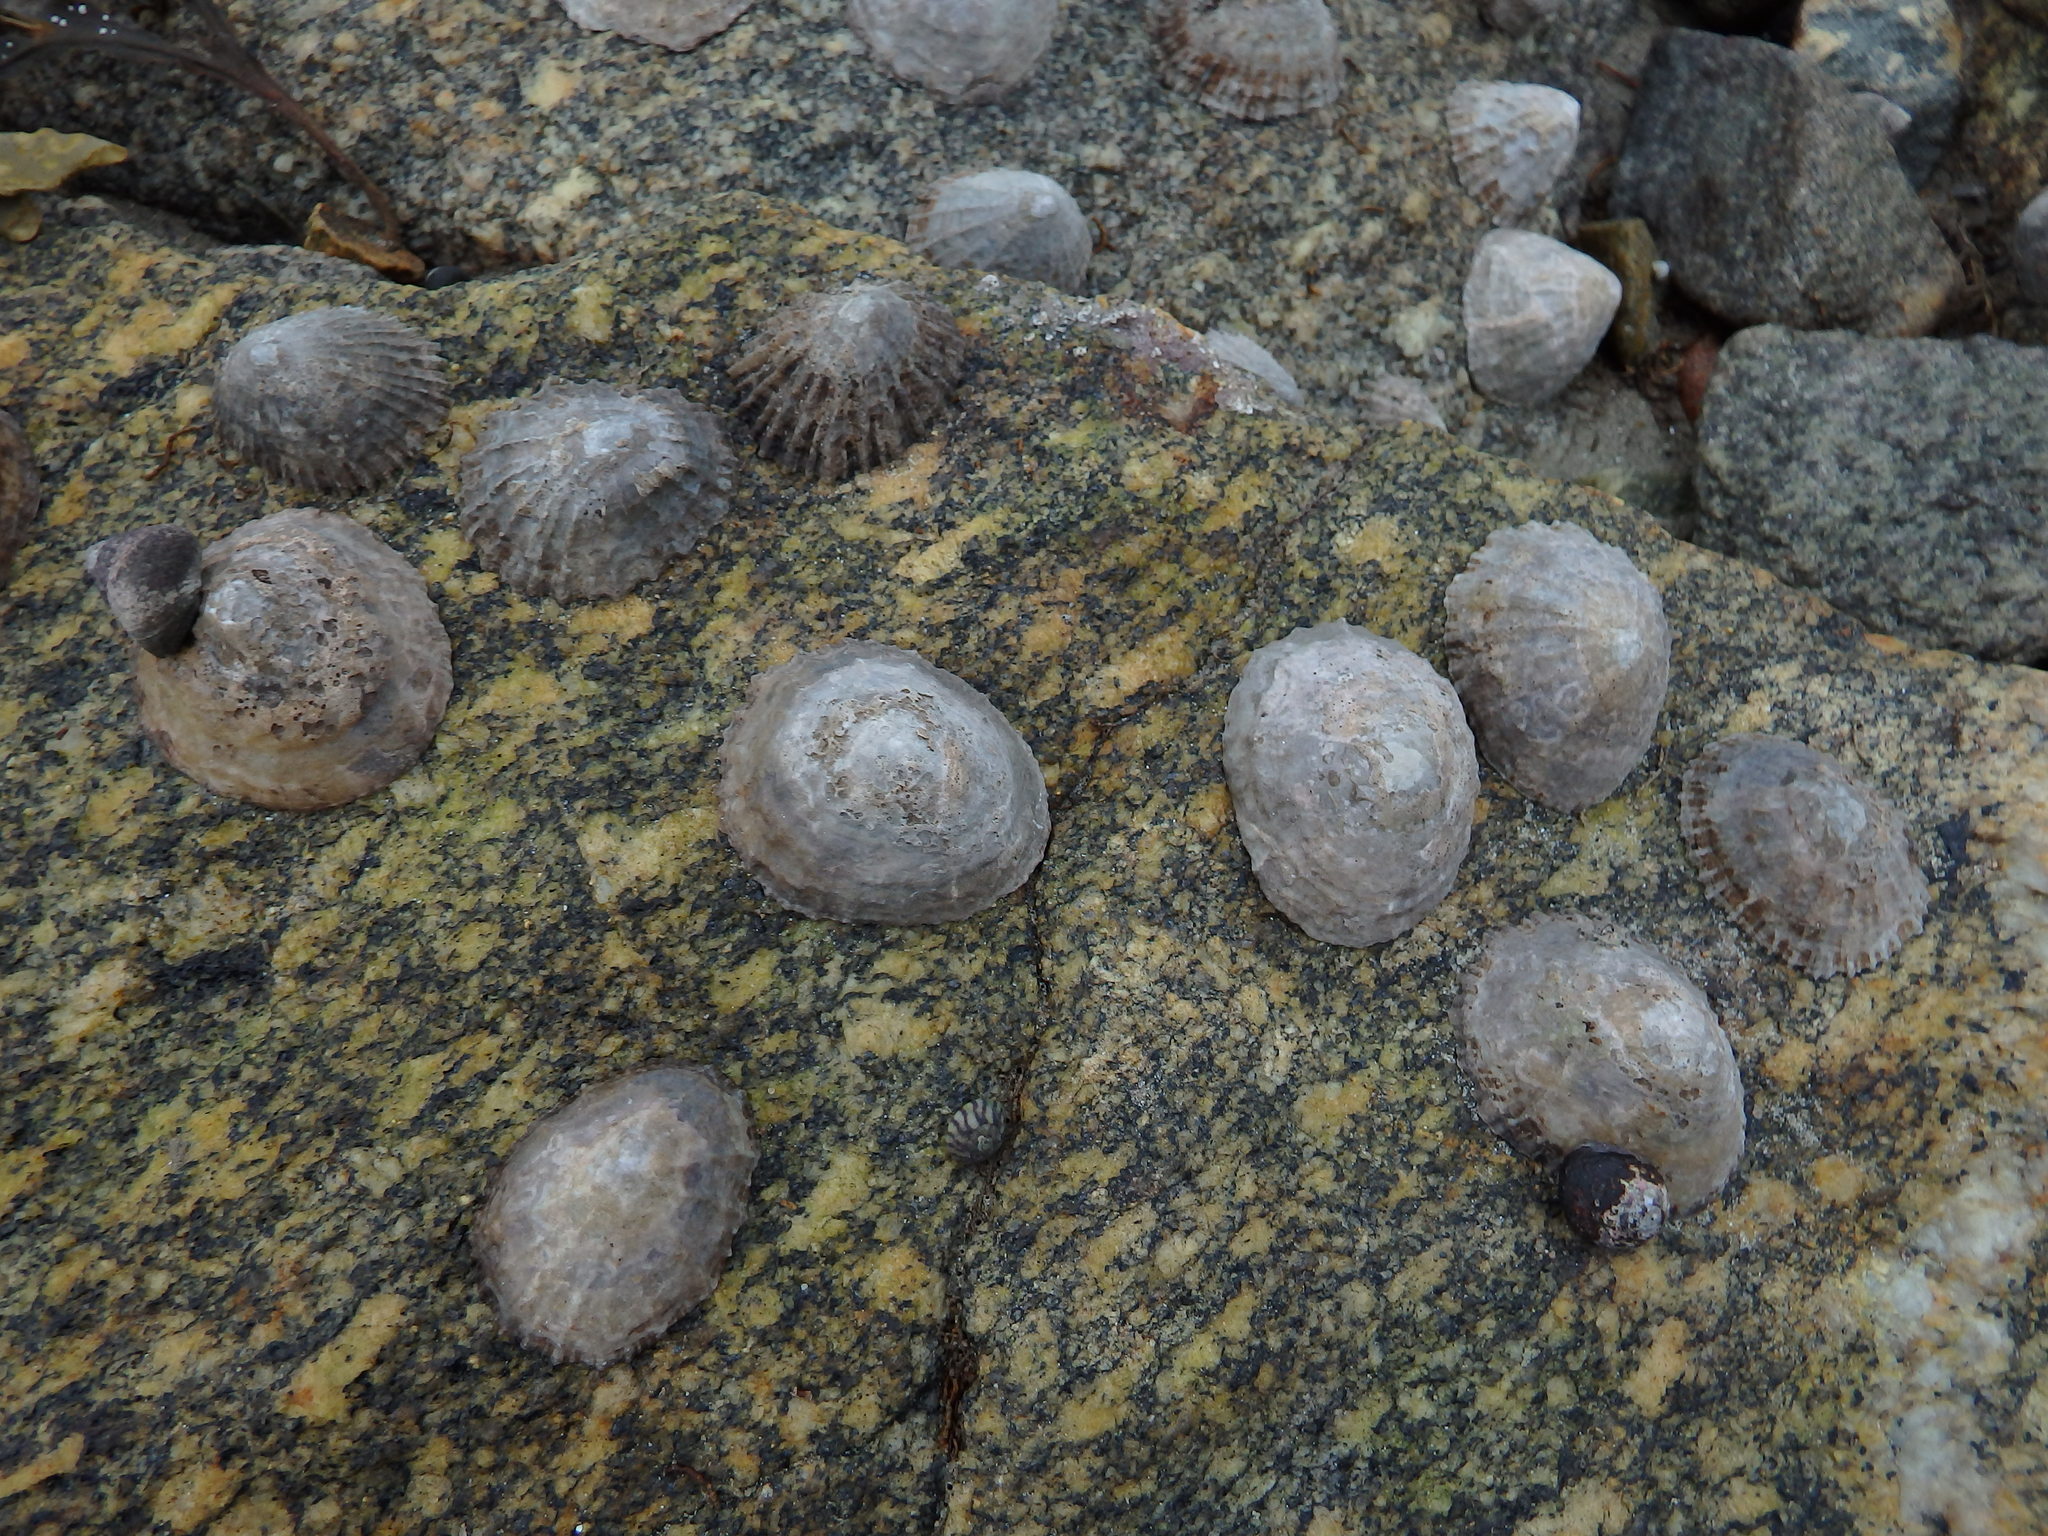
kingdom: Animalia
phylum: Mollusca
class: Gastropoda
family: Patellidae
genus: Patella
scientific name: Patella vulgata
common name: Common limpet
